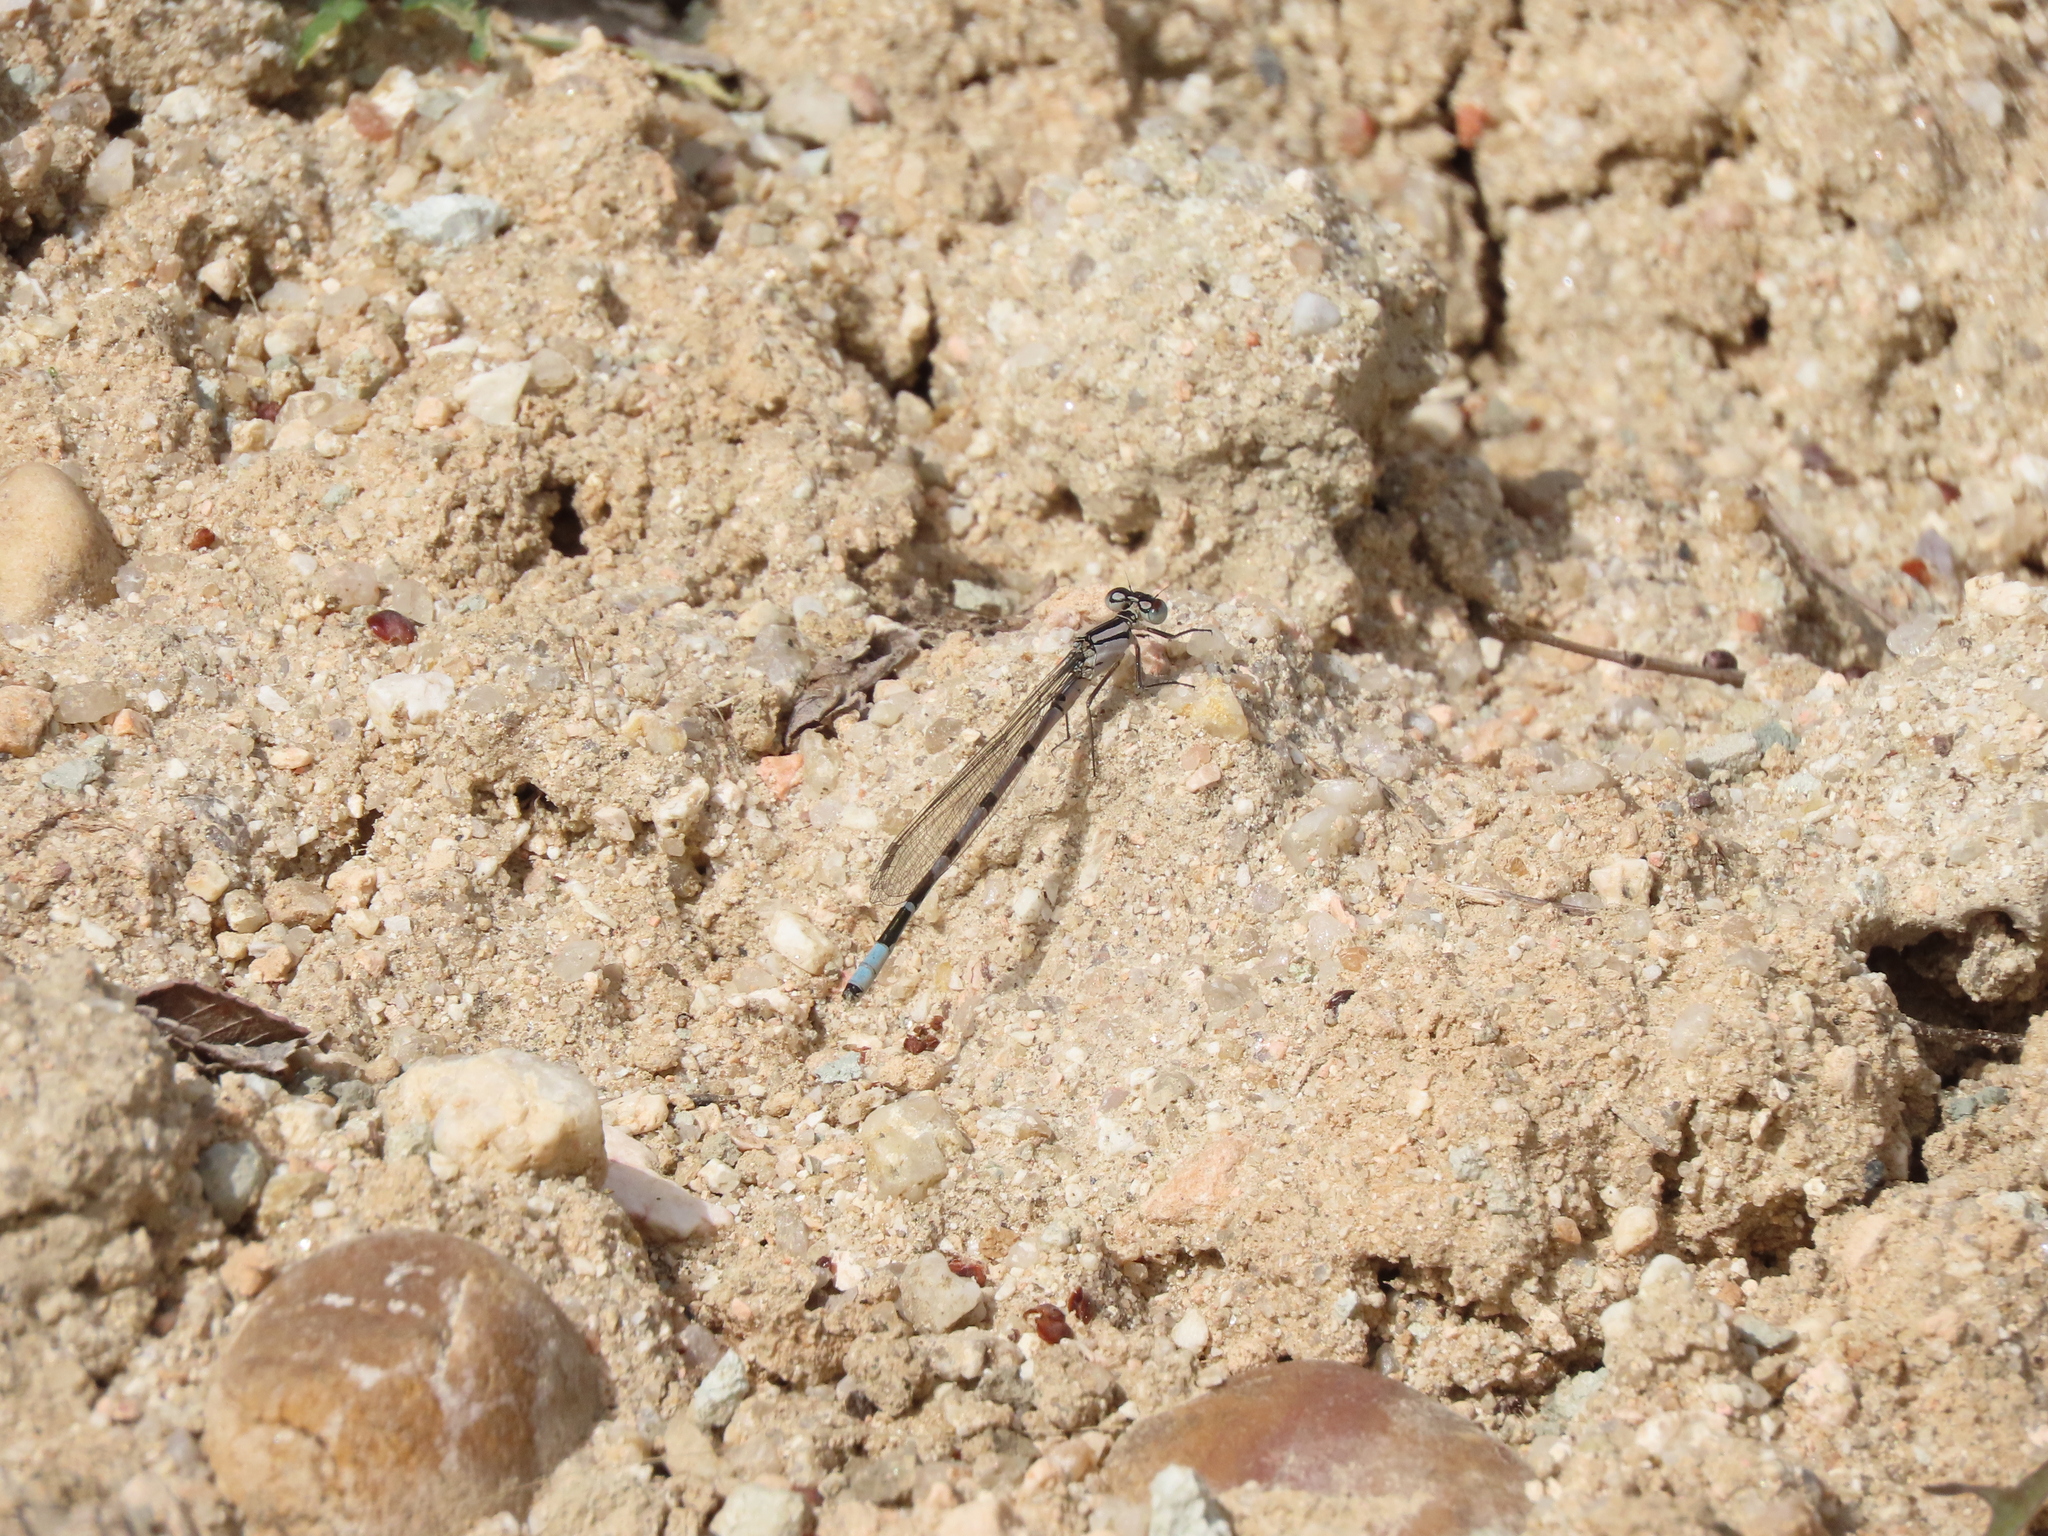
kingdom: Animalia
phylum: Arthropoda
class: Insecta
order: Odonata
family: Coenagrionidae
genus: Enallagma
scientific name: Enallagma cyathigerum
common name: Common blue damselfly
